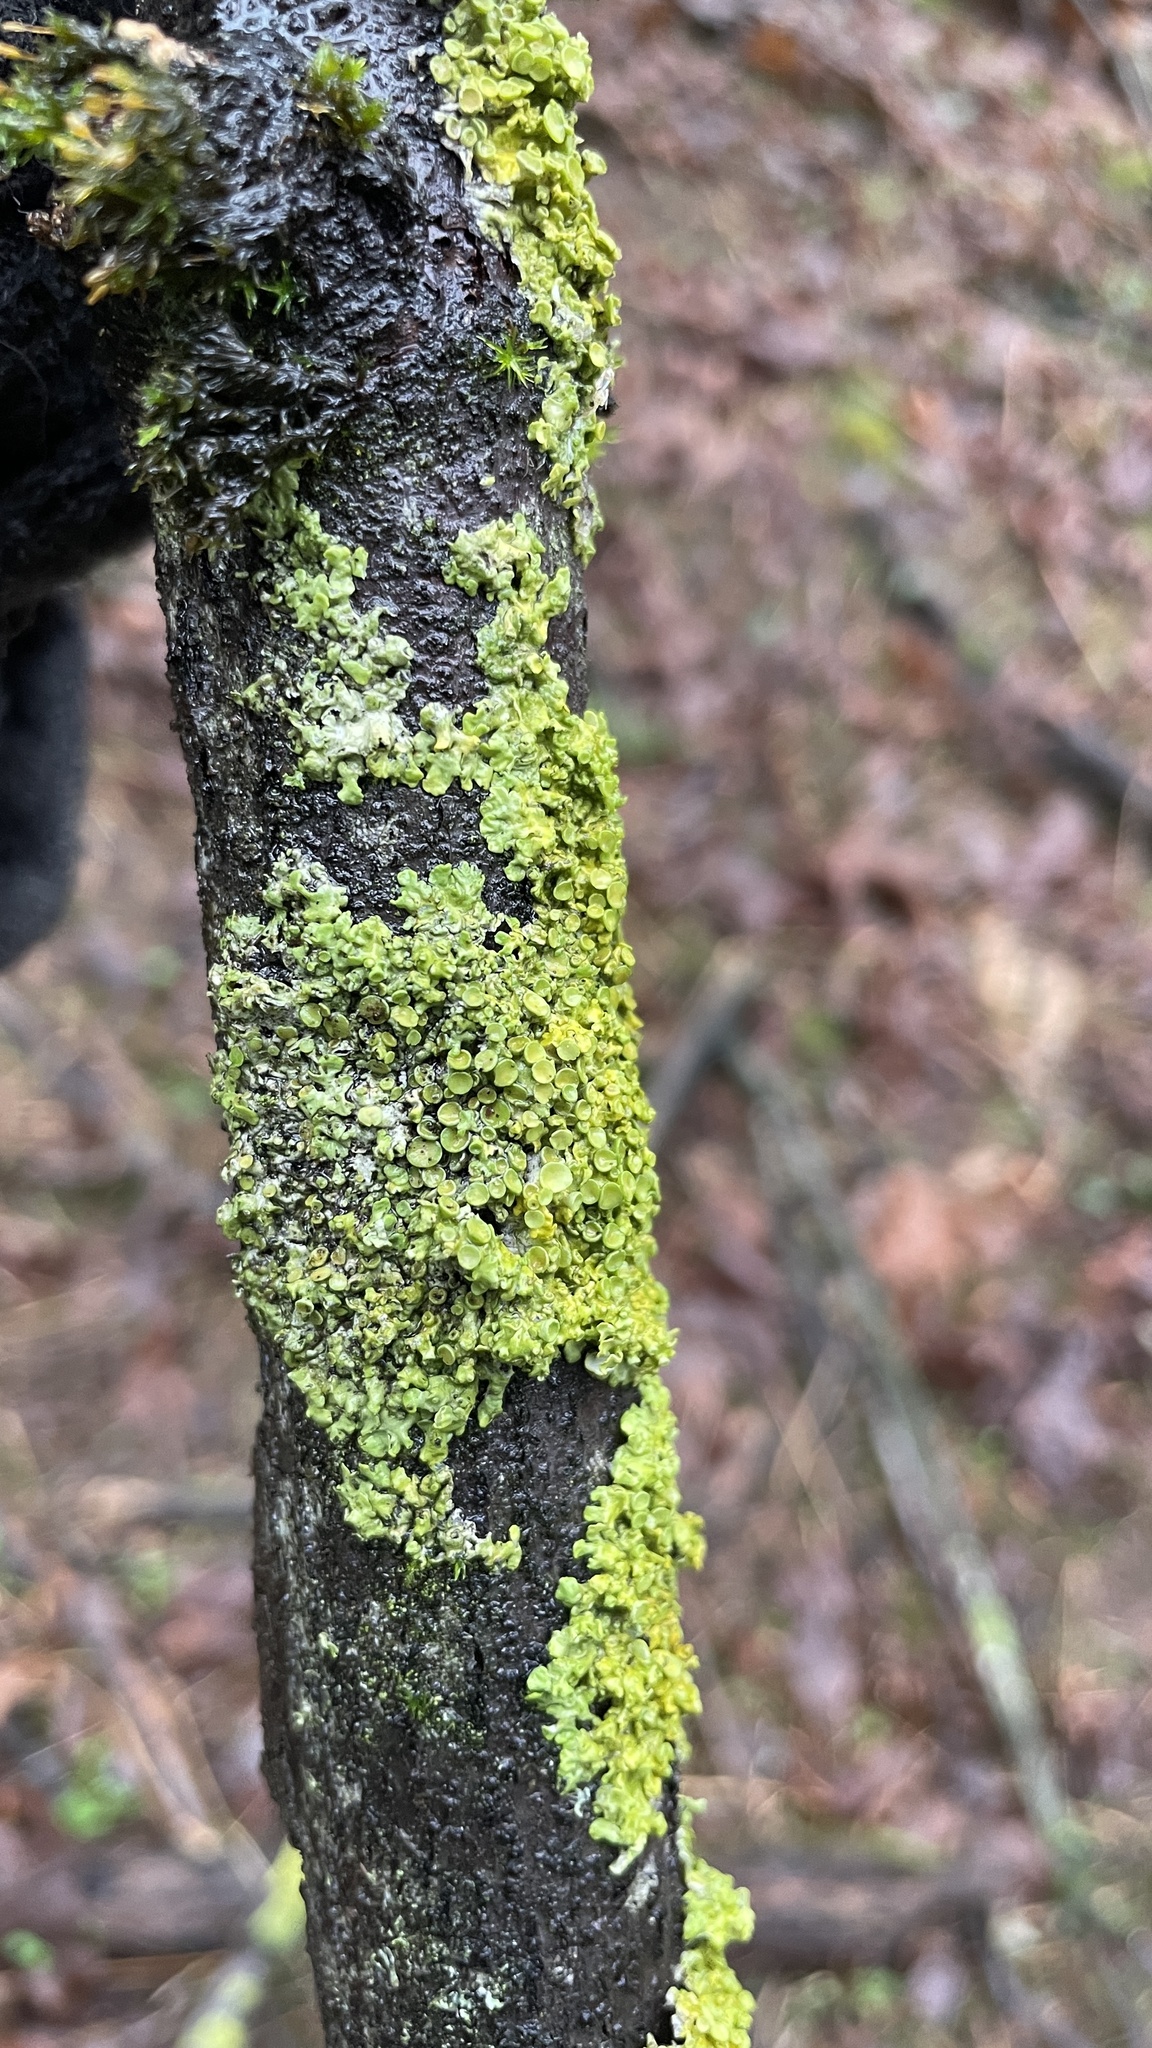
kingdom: Fungi
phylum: Ascomycota
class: Lecanoromycetes
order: Teloschistales
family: Teloschistaceae
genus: Xanthoria
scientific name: Xanthoria parietina
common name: Common orange lichen
